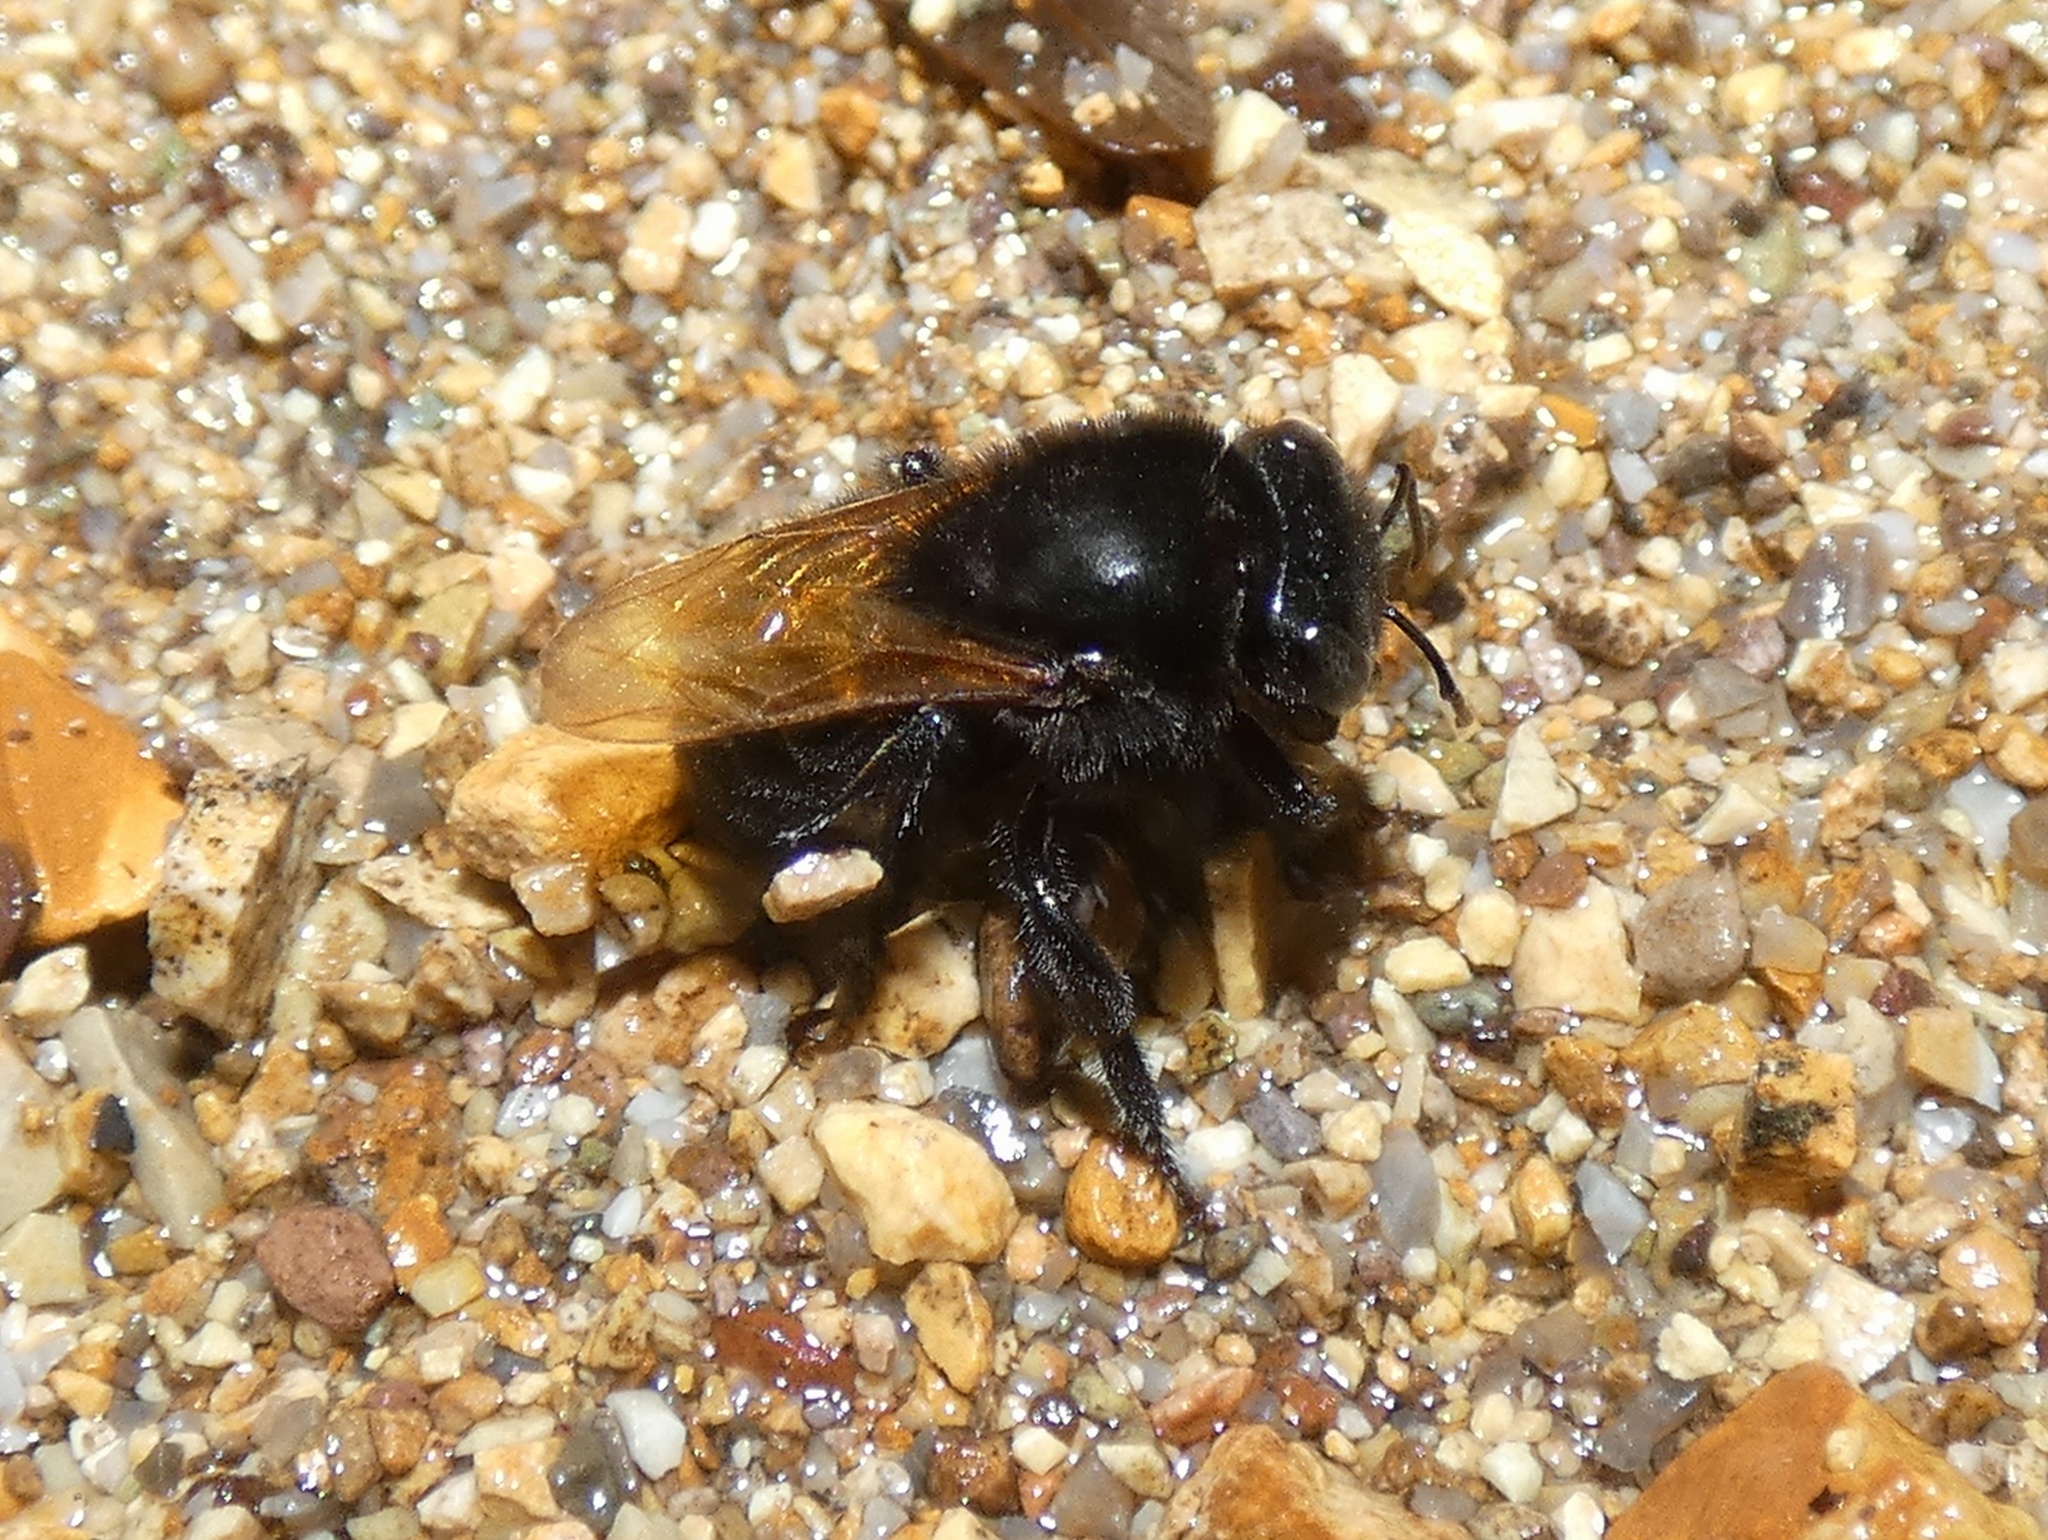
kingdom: Animalia
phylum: Arthropoda
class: Insecta
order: Hymenoptera
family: Apidae
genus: Melipona
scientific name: Melipona fallax
